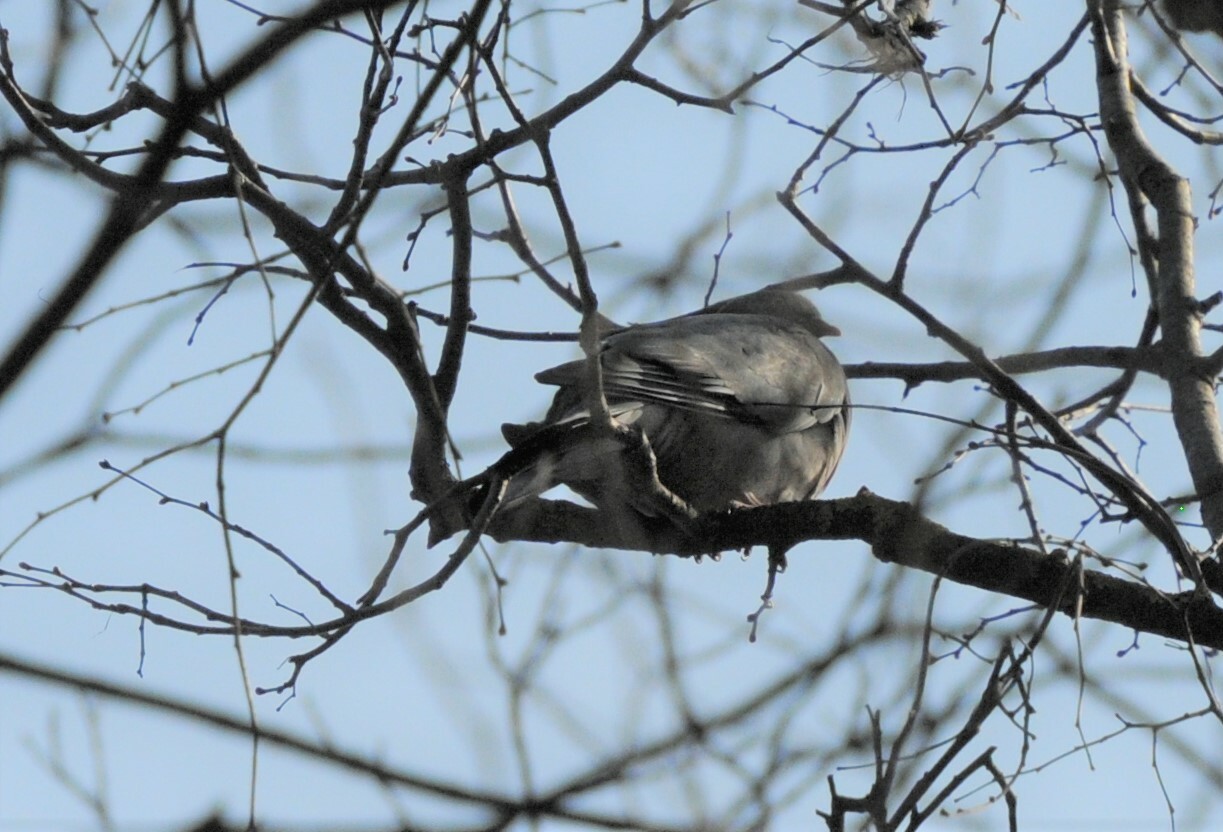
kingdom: Animalia
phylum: Chordata
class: Aves
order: Columbiformes
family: Columbidae
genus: Columba
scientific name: Columba palumbus
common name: Common wood pigeon
